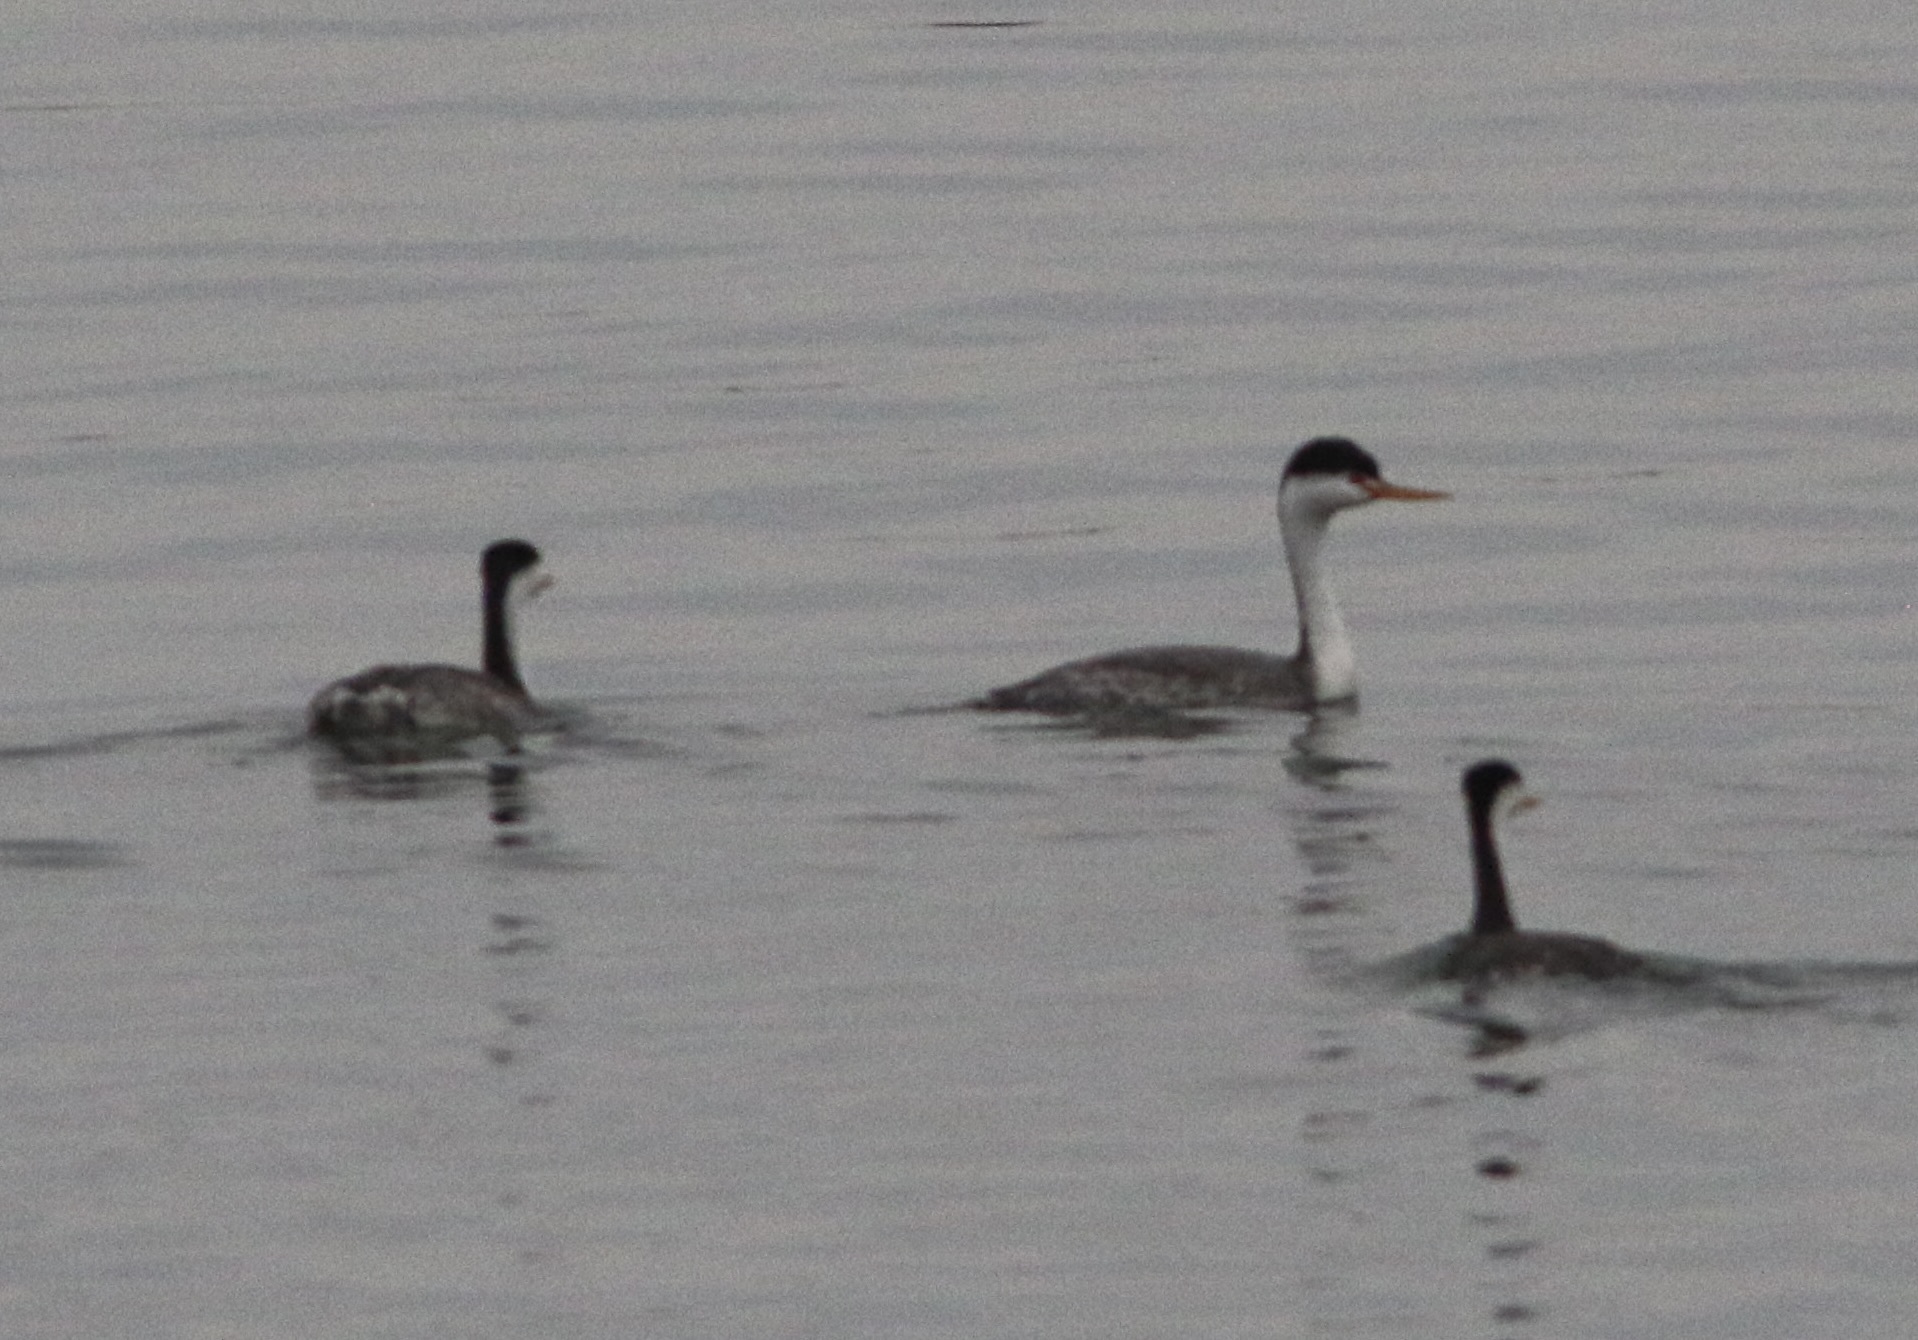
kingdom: Animalia
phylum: Chordata
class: Aves
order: Podicipediformes
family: Podicipedidae
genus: Aechmophorus
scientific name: Aechmophorus clarkii
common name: Clark's grebe
